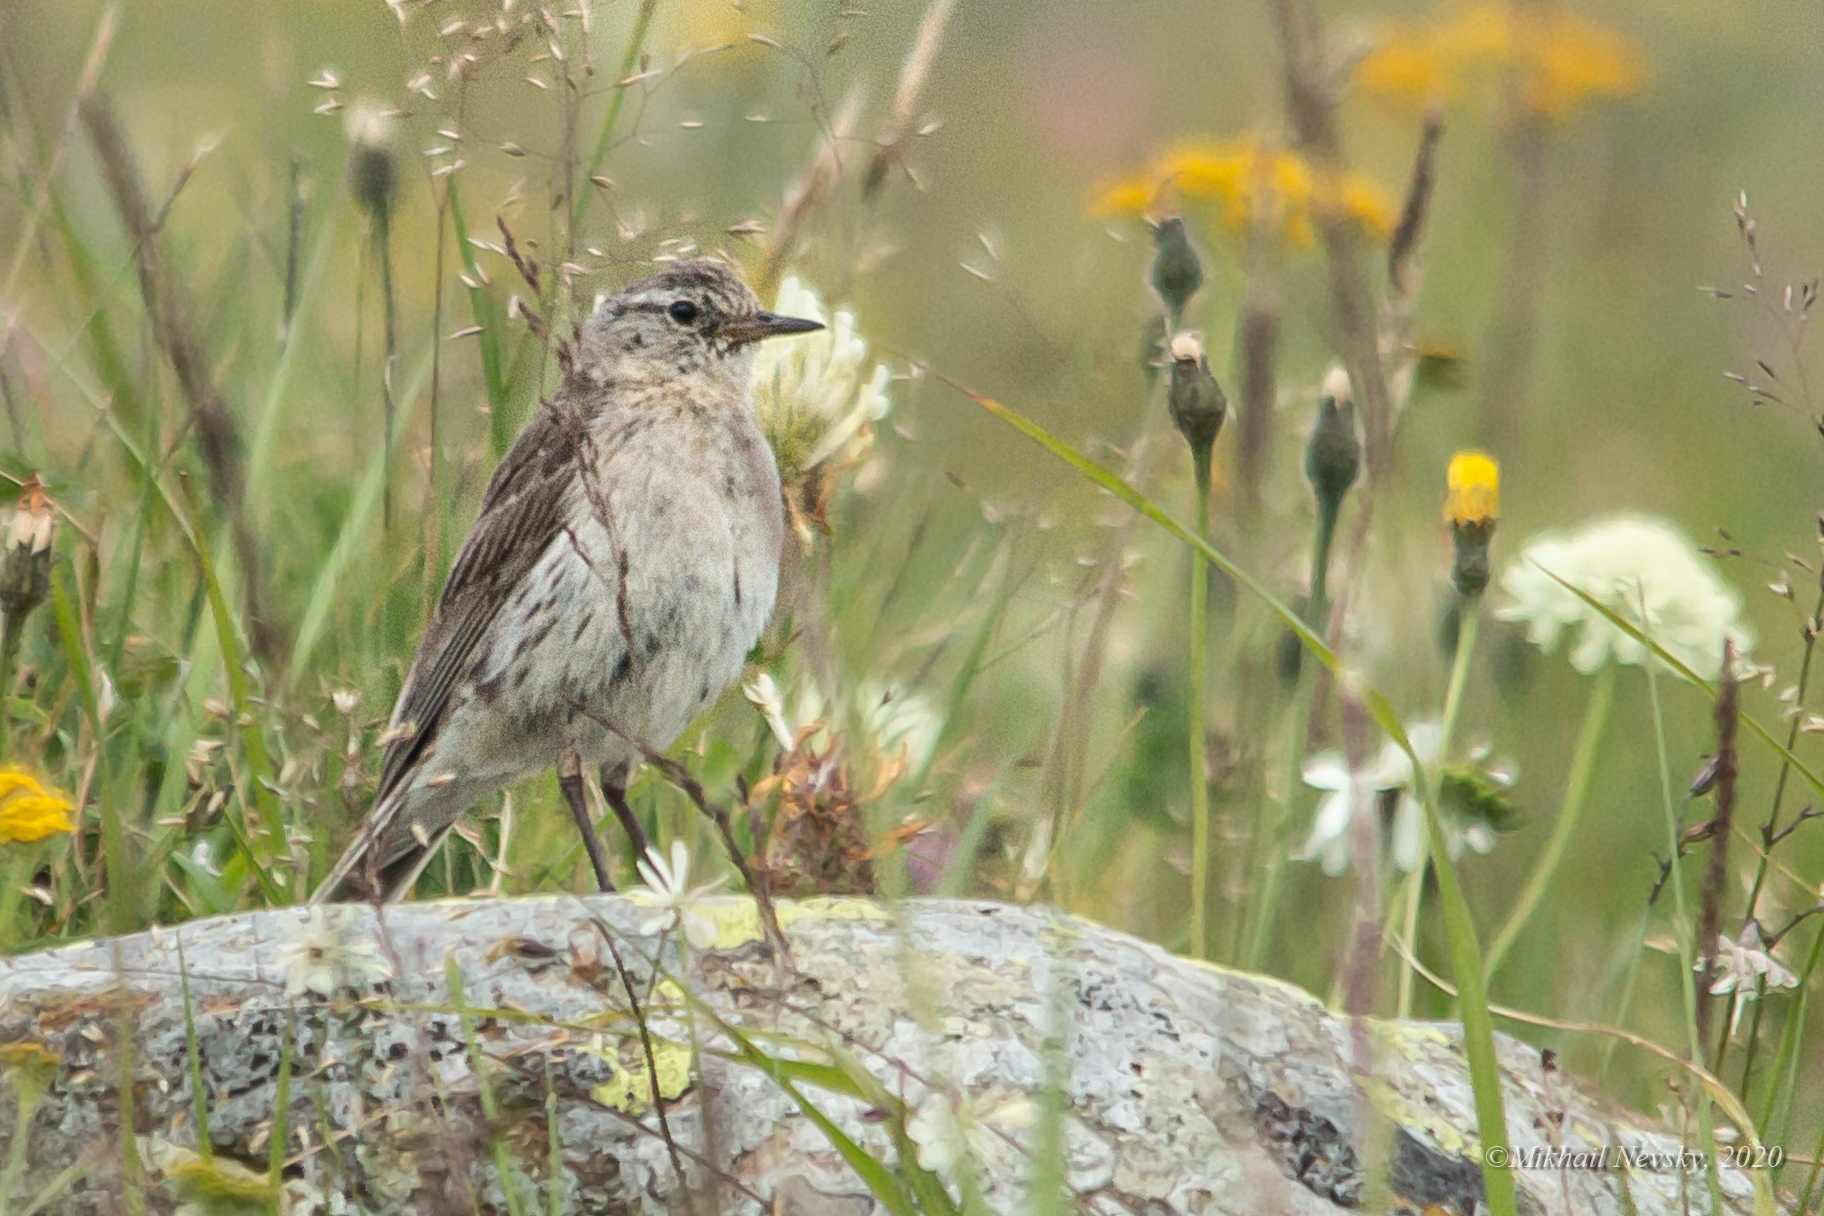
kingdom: Animalia
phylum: Chordata
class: Aves
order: Passeriformes
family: Motacillidae
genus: Anthus
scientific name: Anthus spinoletta
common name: Water pipit
